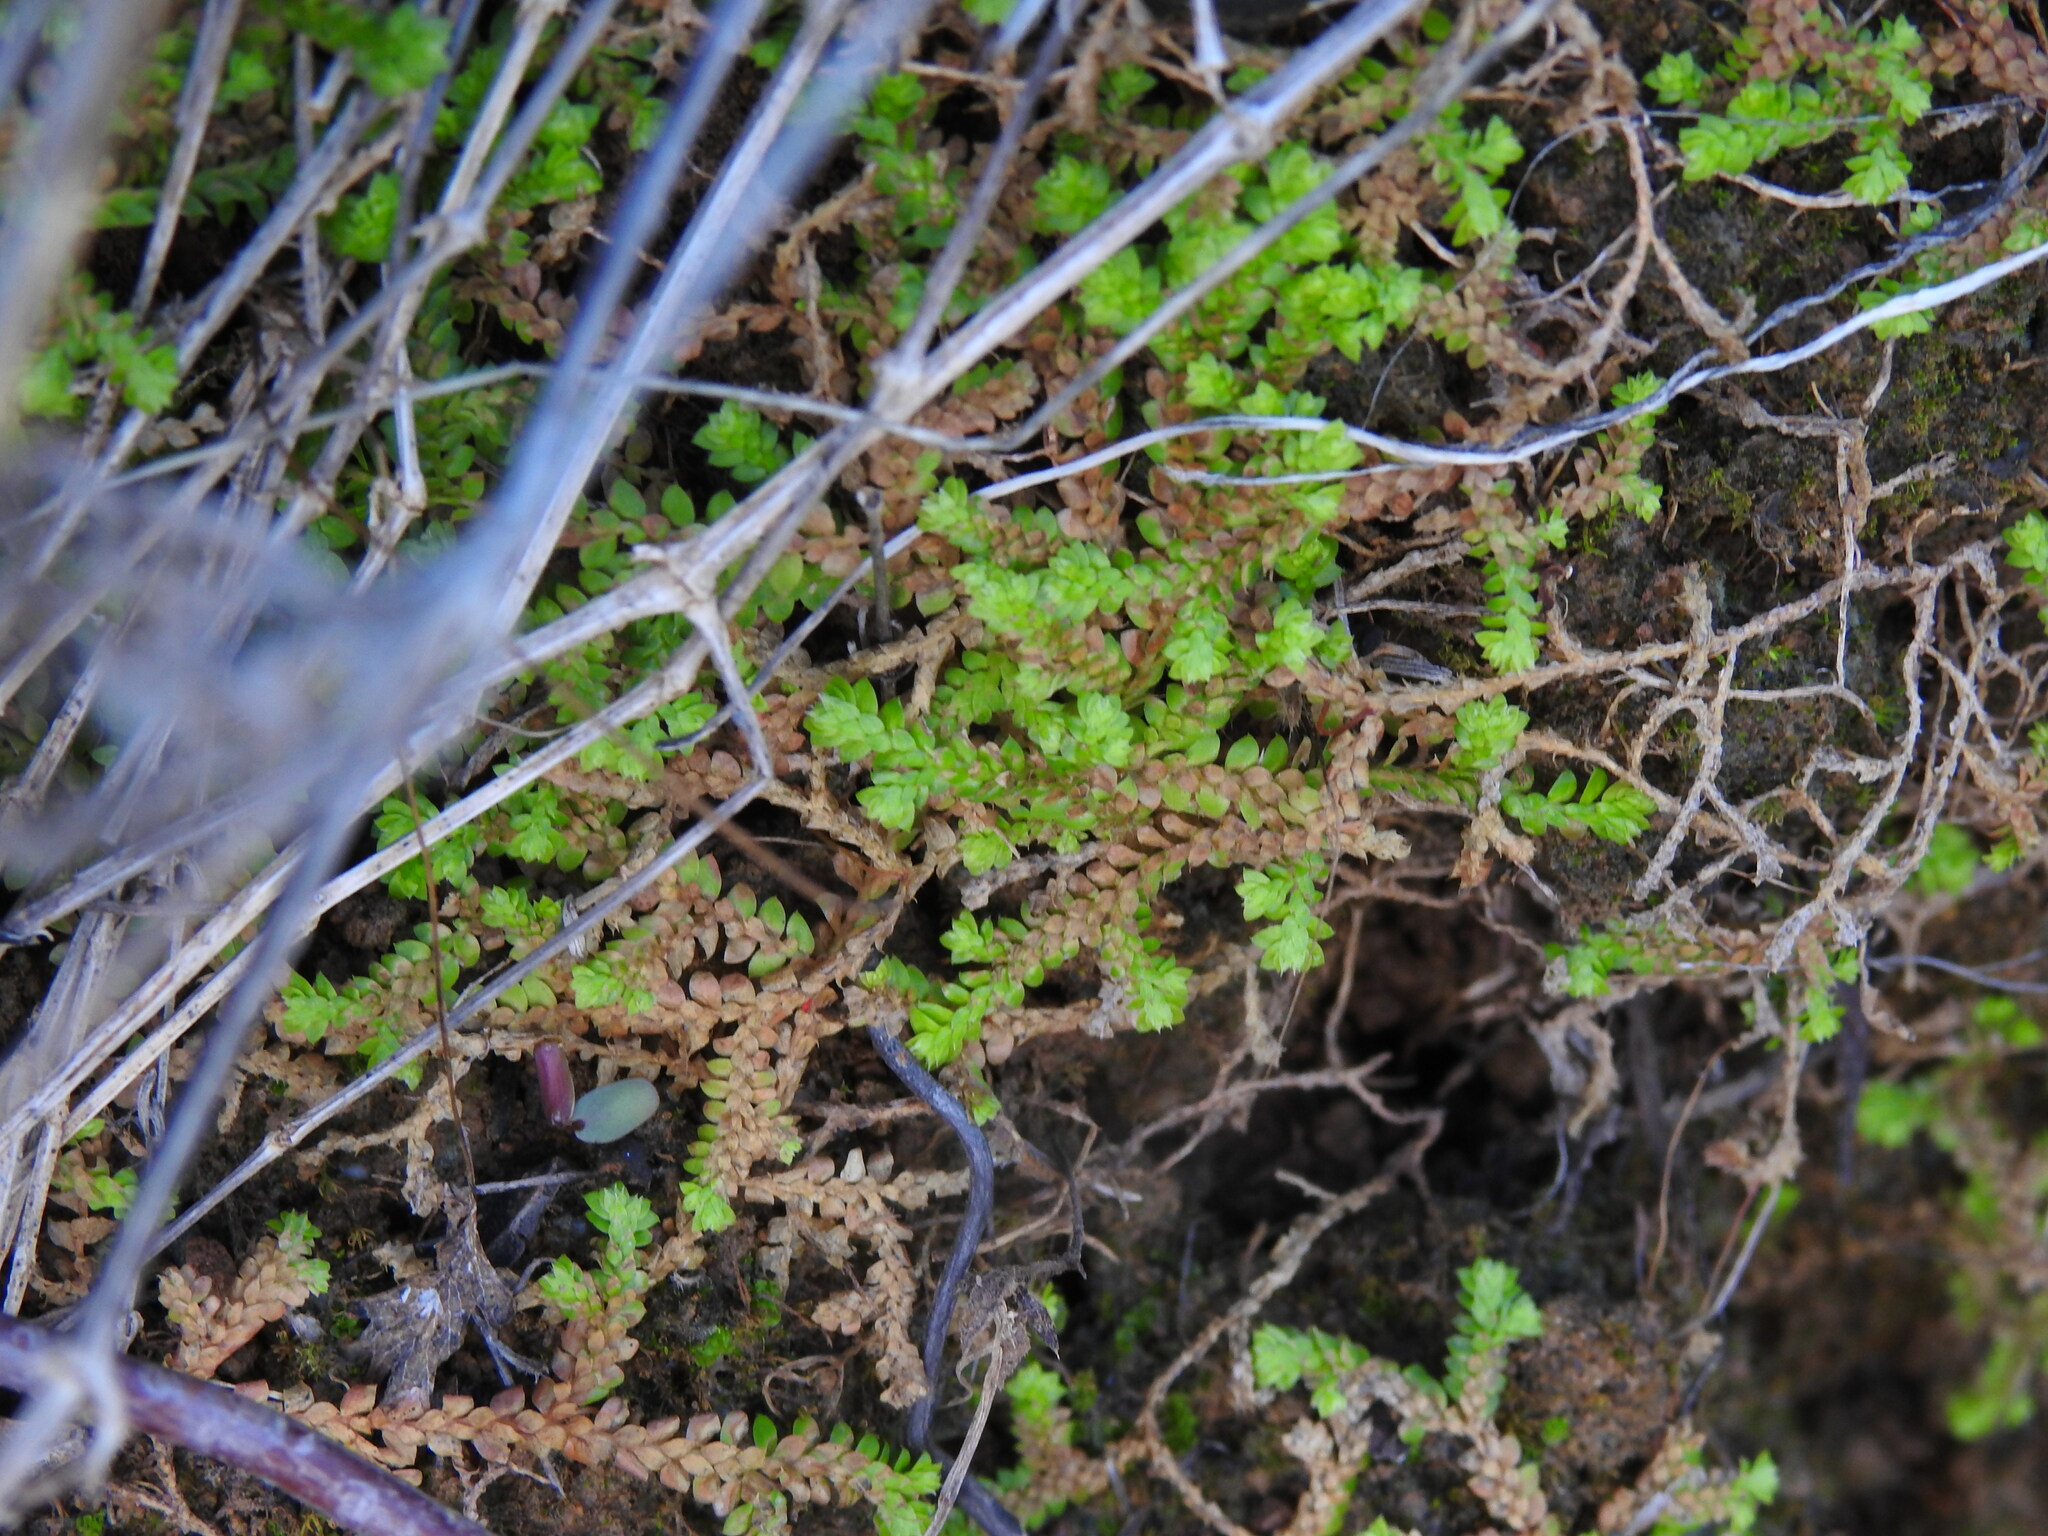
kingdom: Plantae
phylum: Tracheophyta
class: Lycopodiopsida
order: Selaginellales
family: Selaginellaceae
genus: Selaginella
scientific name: Selaginella denticulata
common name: Toothed-leaved clubmoss
